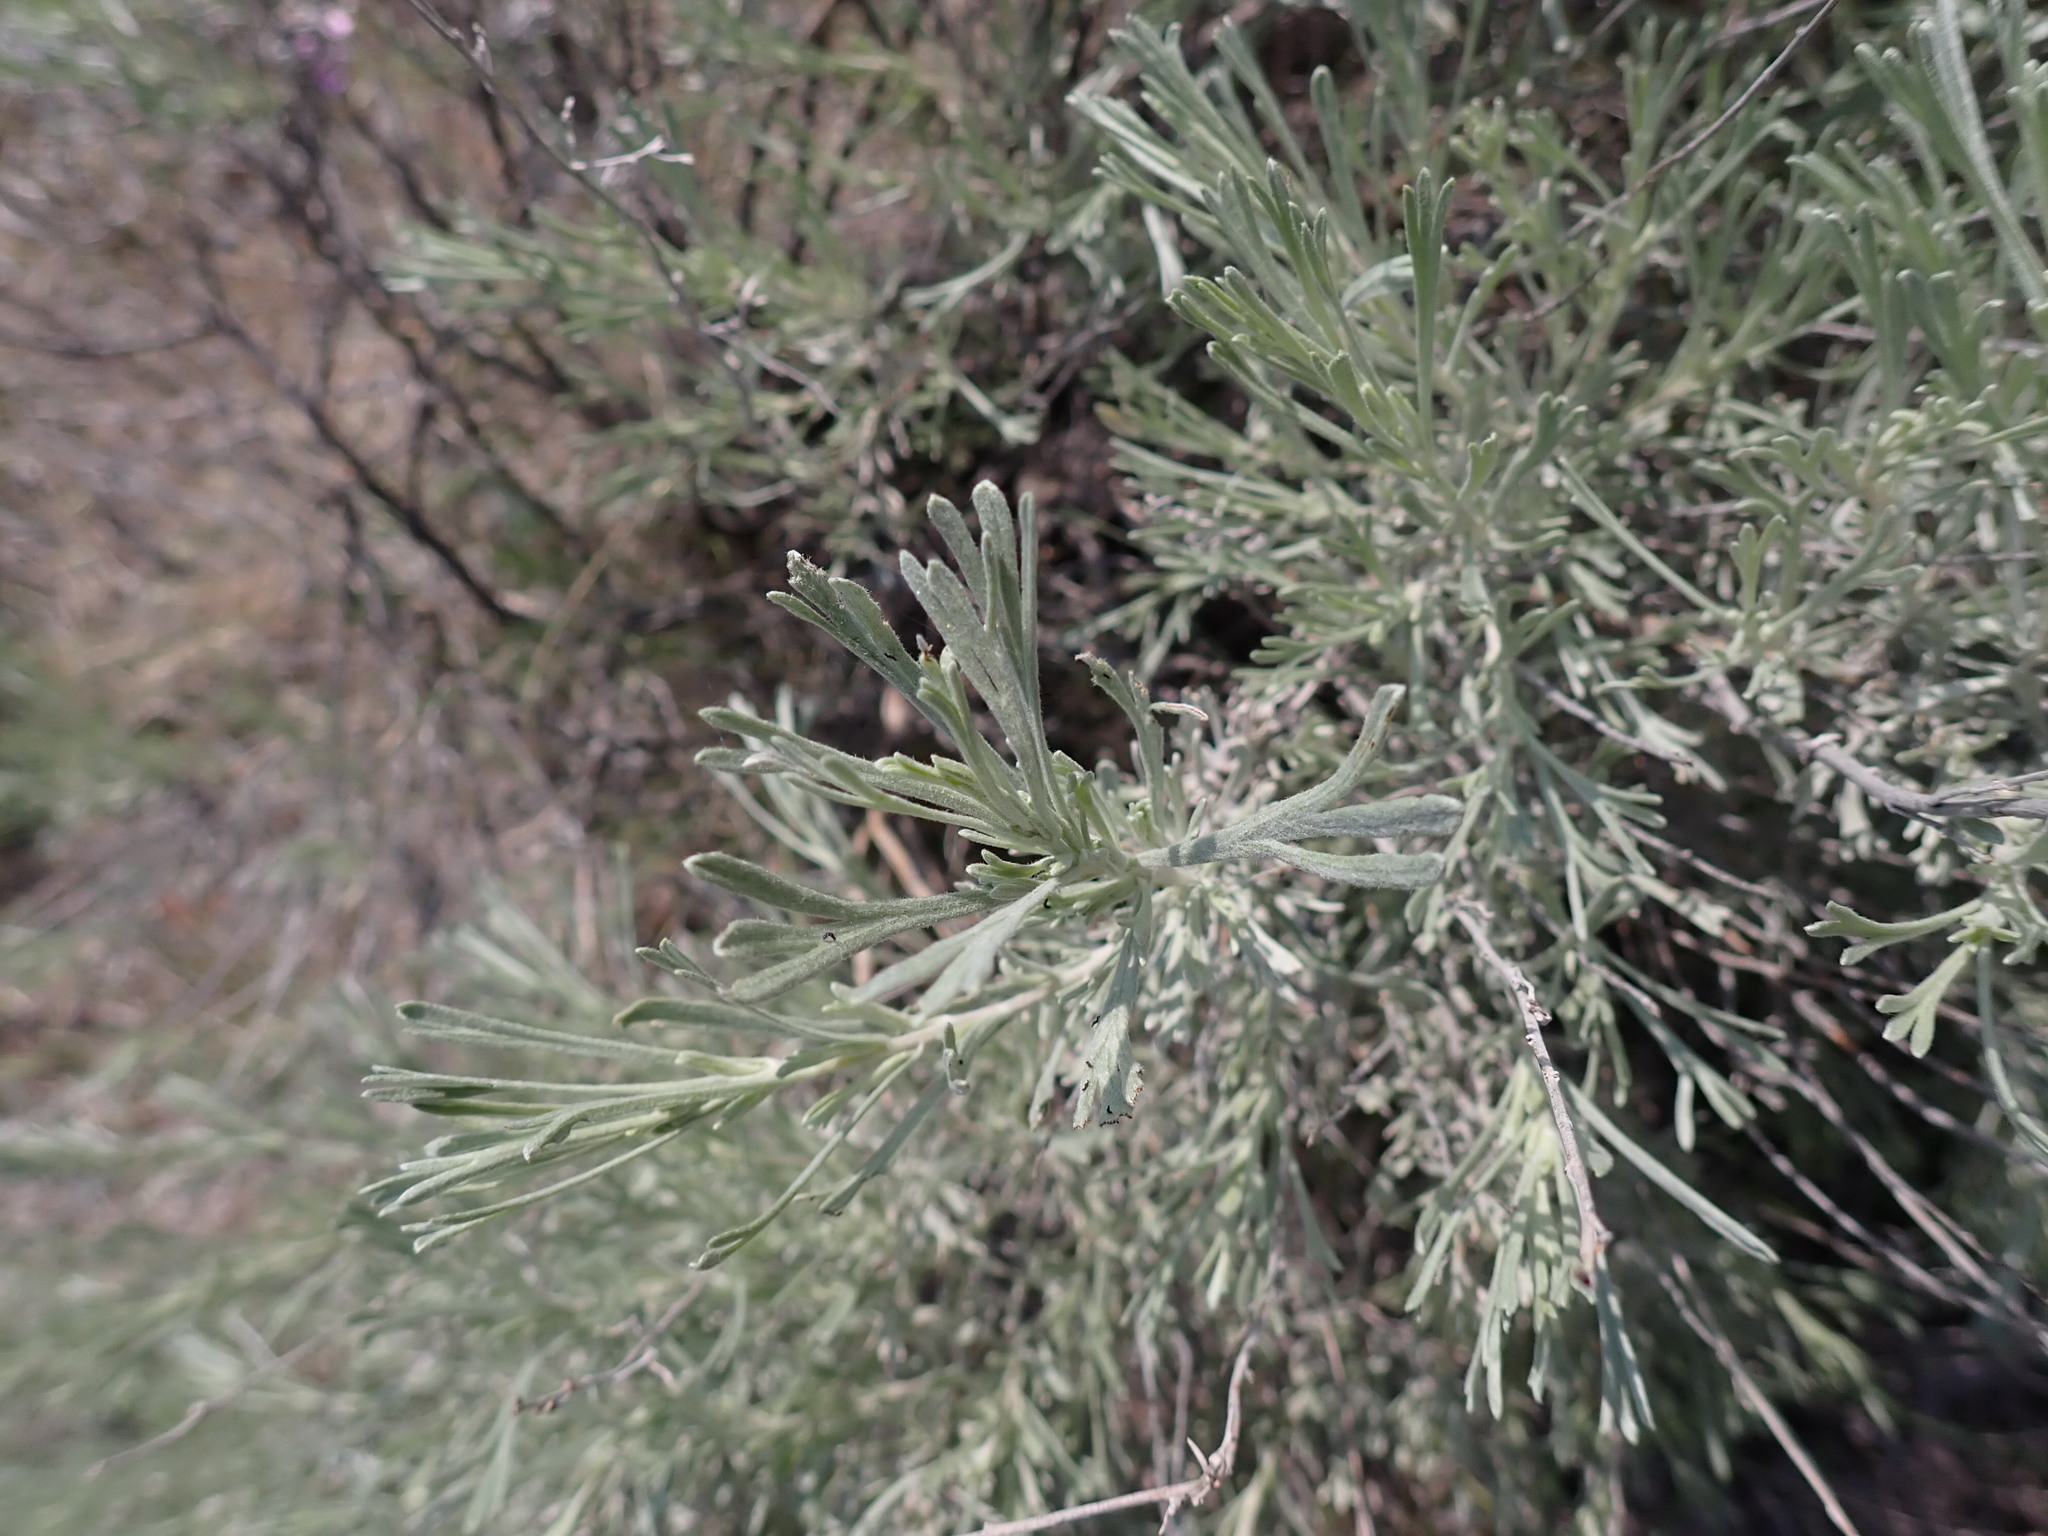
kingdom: Plantae
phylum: Tracheophyta
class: Magnoliopsida
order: Asterales
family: Asteraceae
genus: Artemisia
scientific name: Artemisia tripartita
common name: Three-tip sagebrush
